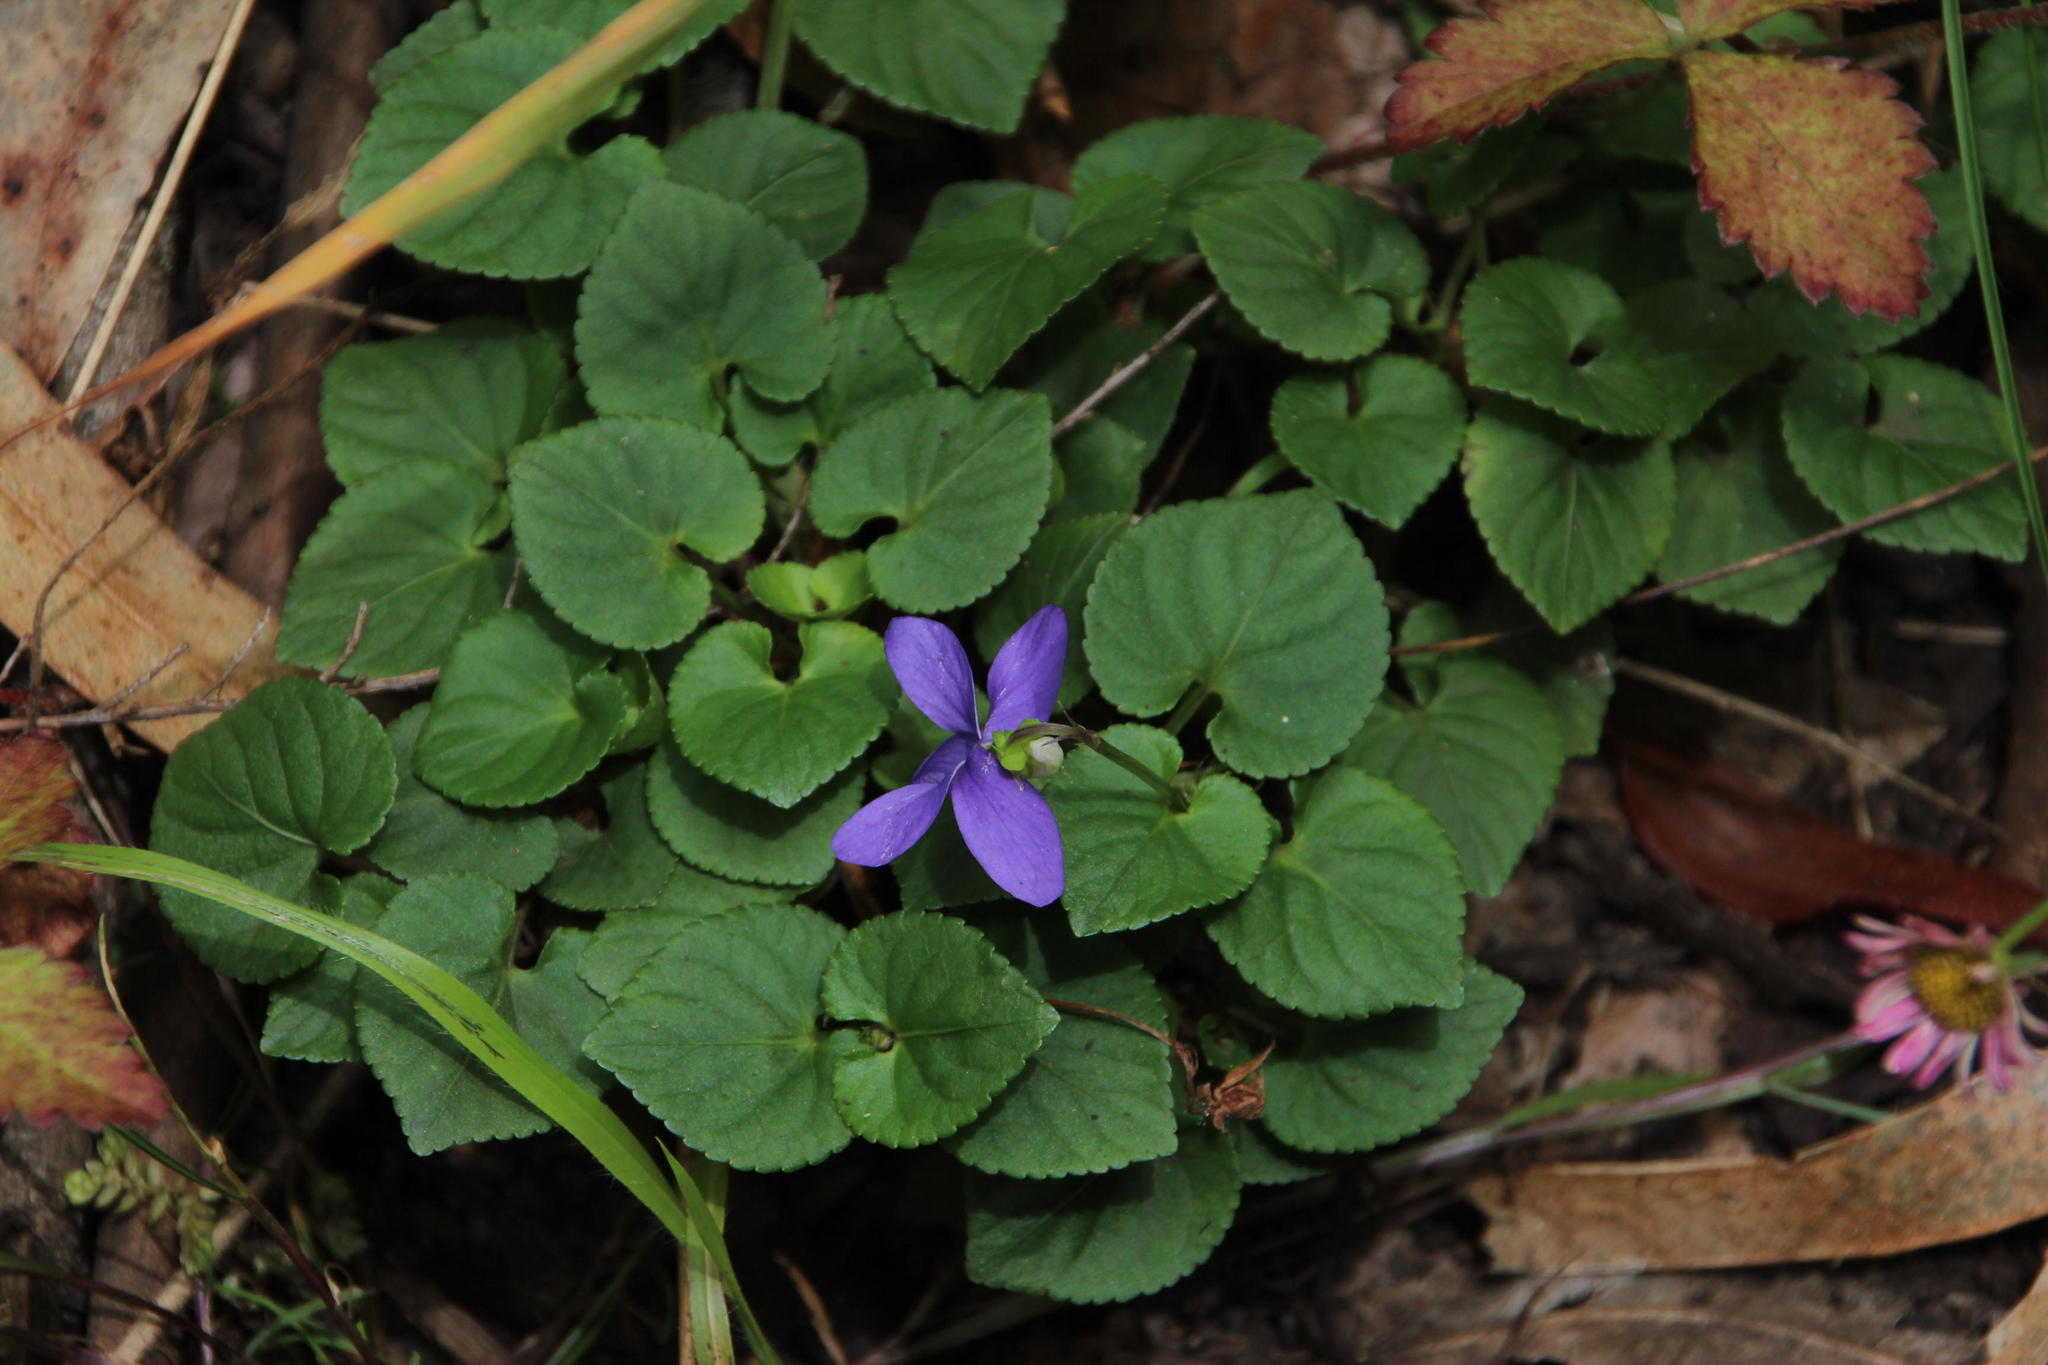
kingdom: Plantae
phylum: Tracheophyta
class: Magnoliopsida
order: Malpighiales
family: Violaceae
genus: Viola
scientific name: Viola riviniana
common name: Common dog-violet
